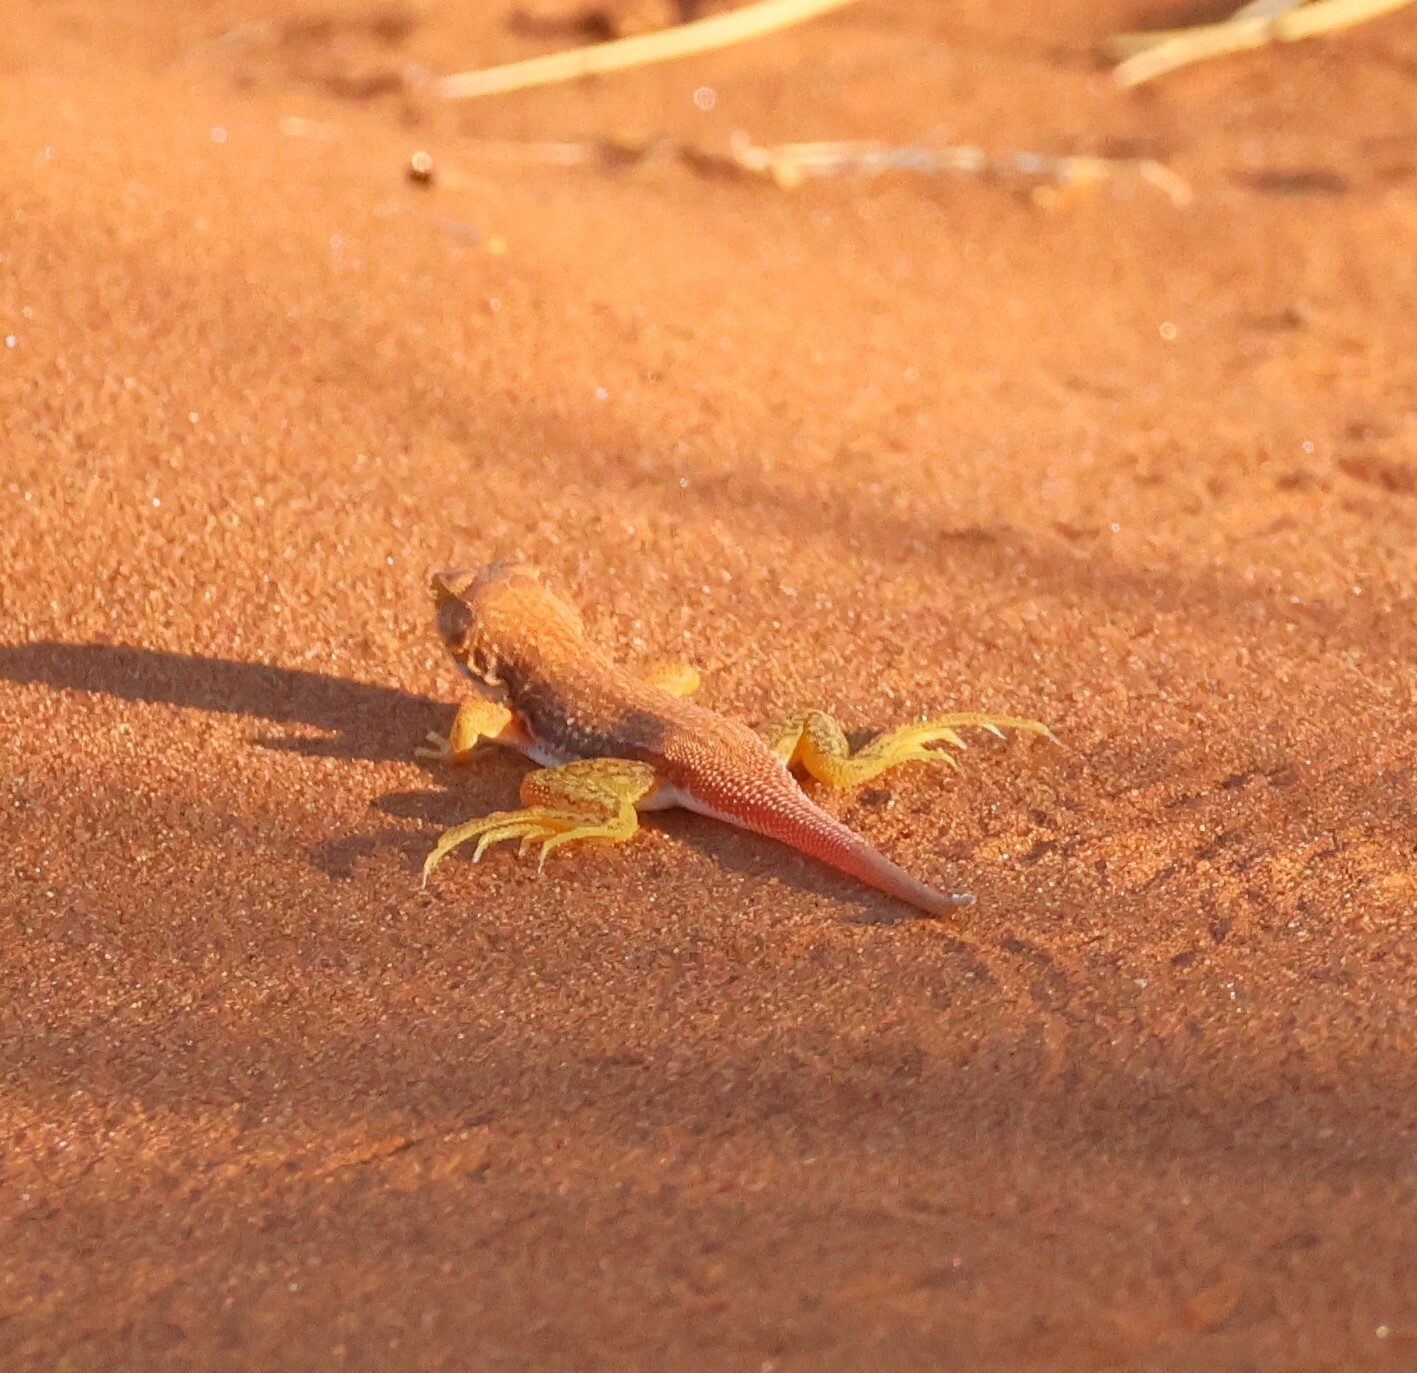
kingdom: Animalia
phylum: Chordata
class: Squamata
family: Lacertidae
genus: Meroles
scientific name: Meroles cuneirostris
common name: Wedge-snouted desert lizard
